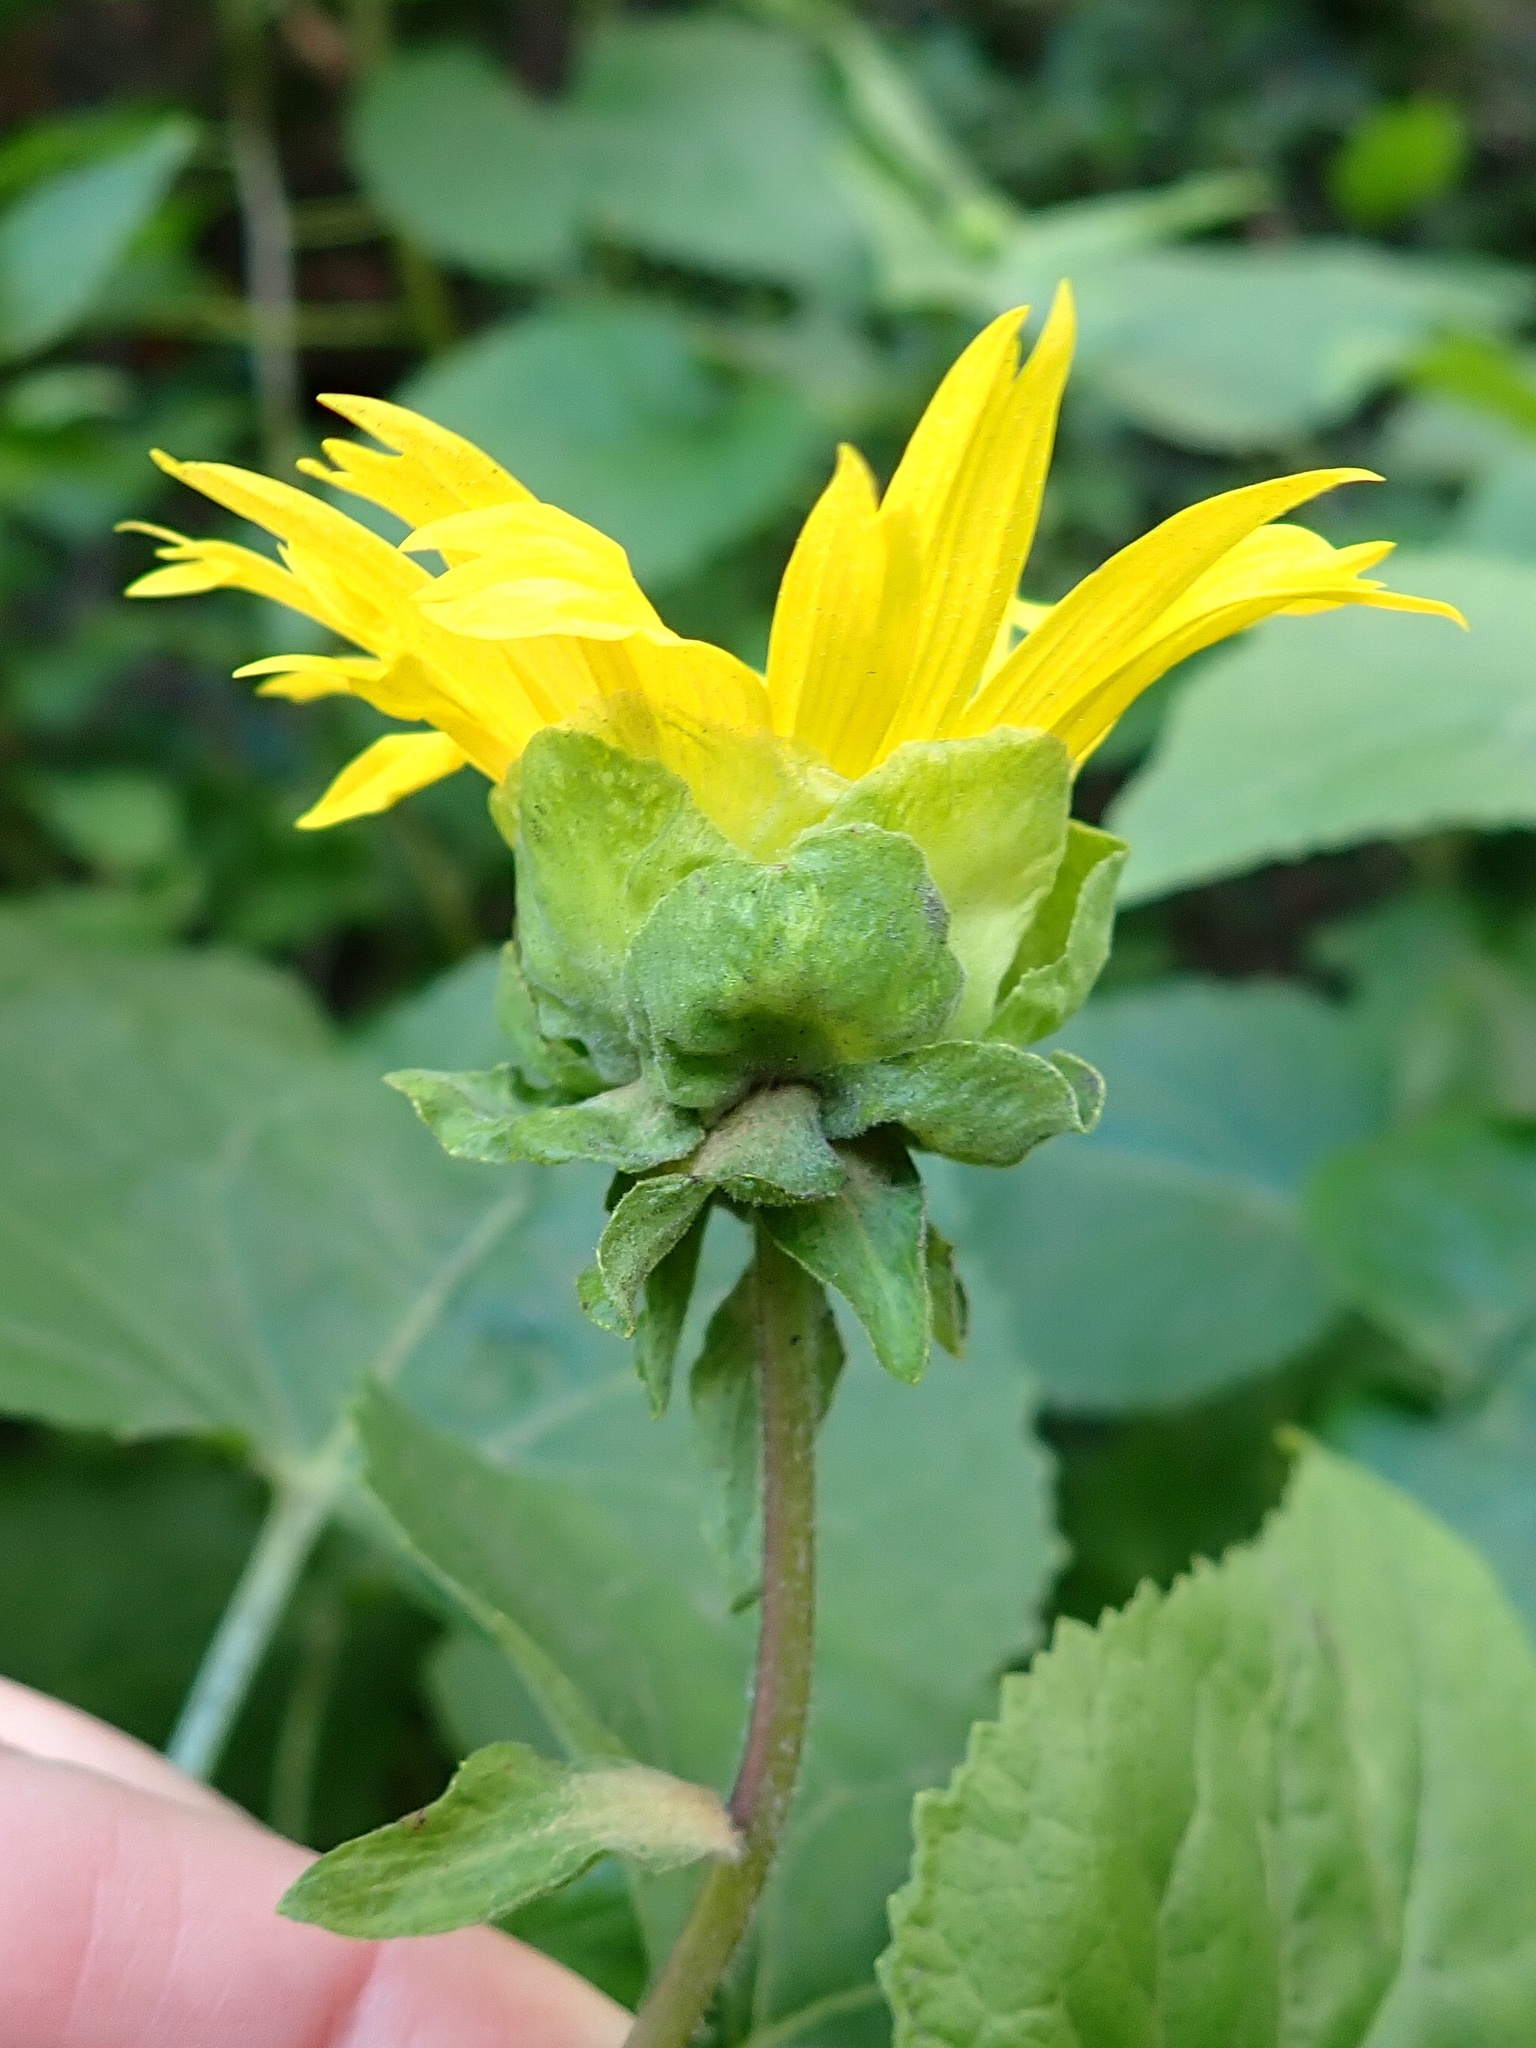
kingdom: Plantae
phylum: Tracheophyta
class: Magnoliopsida
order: Asterales
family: Asteraceae
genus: Venegasia
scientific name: Venegasia carpesioides
